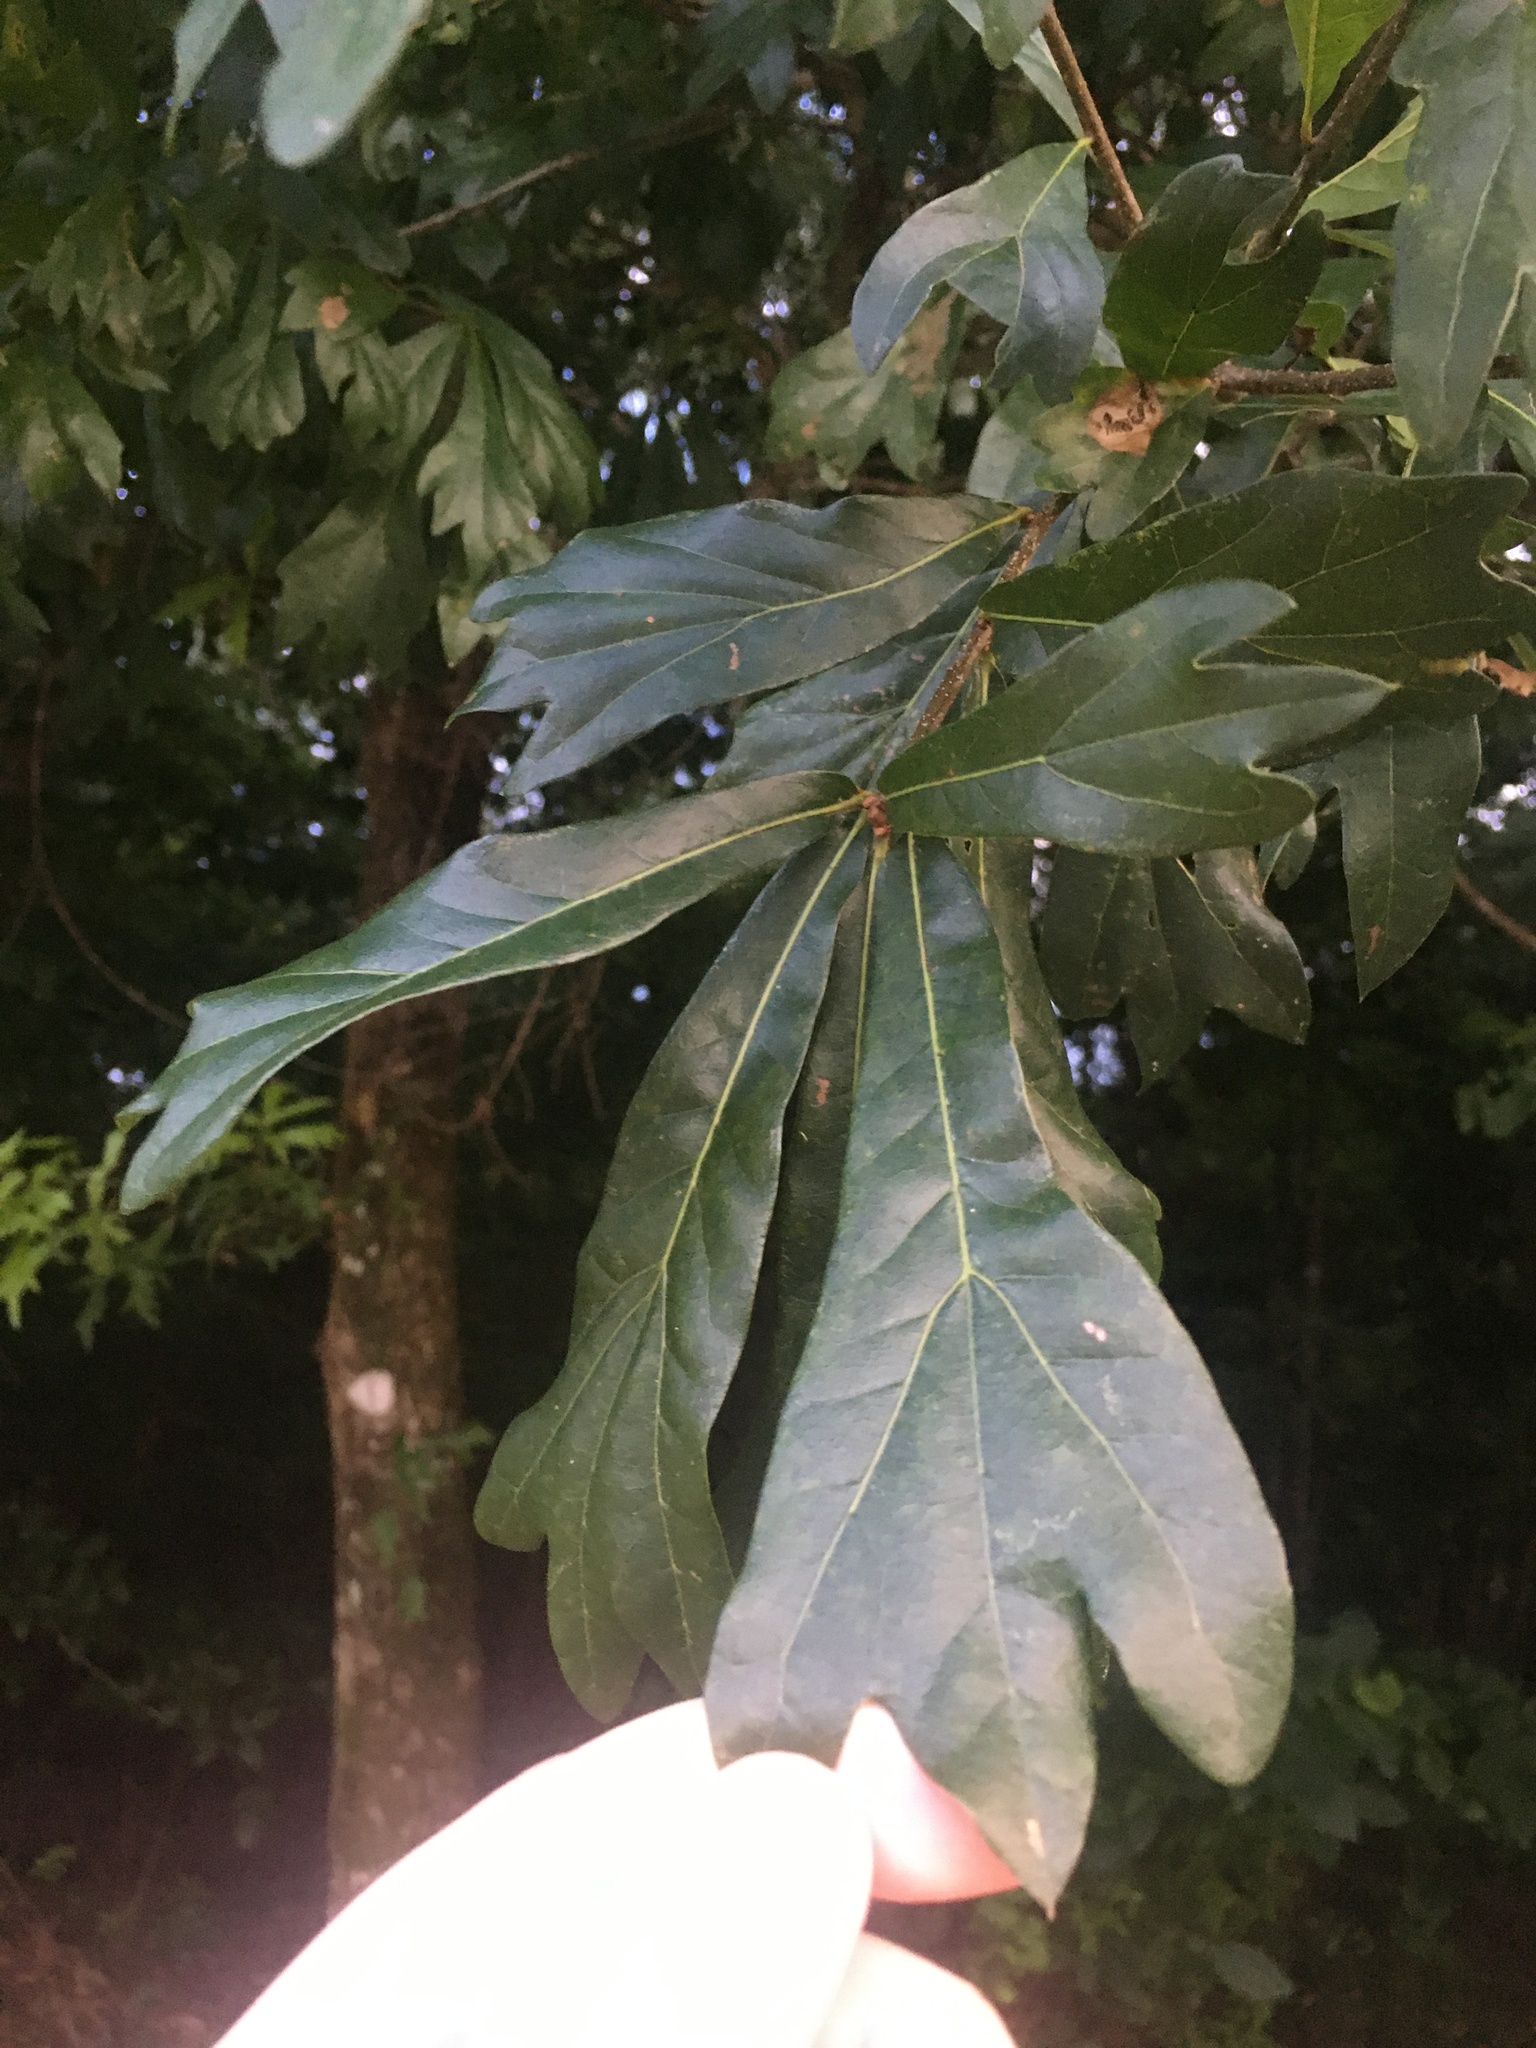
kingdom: Plantae
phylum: Tracheophyta
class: Magnoliopsida
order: Fagales
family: Fagaceae
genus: Quercus
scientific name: Quercus nigra
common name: Water oak
